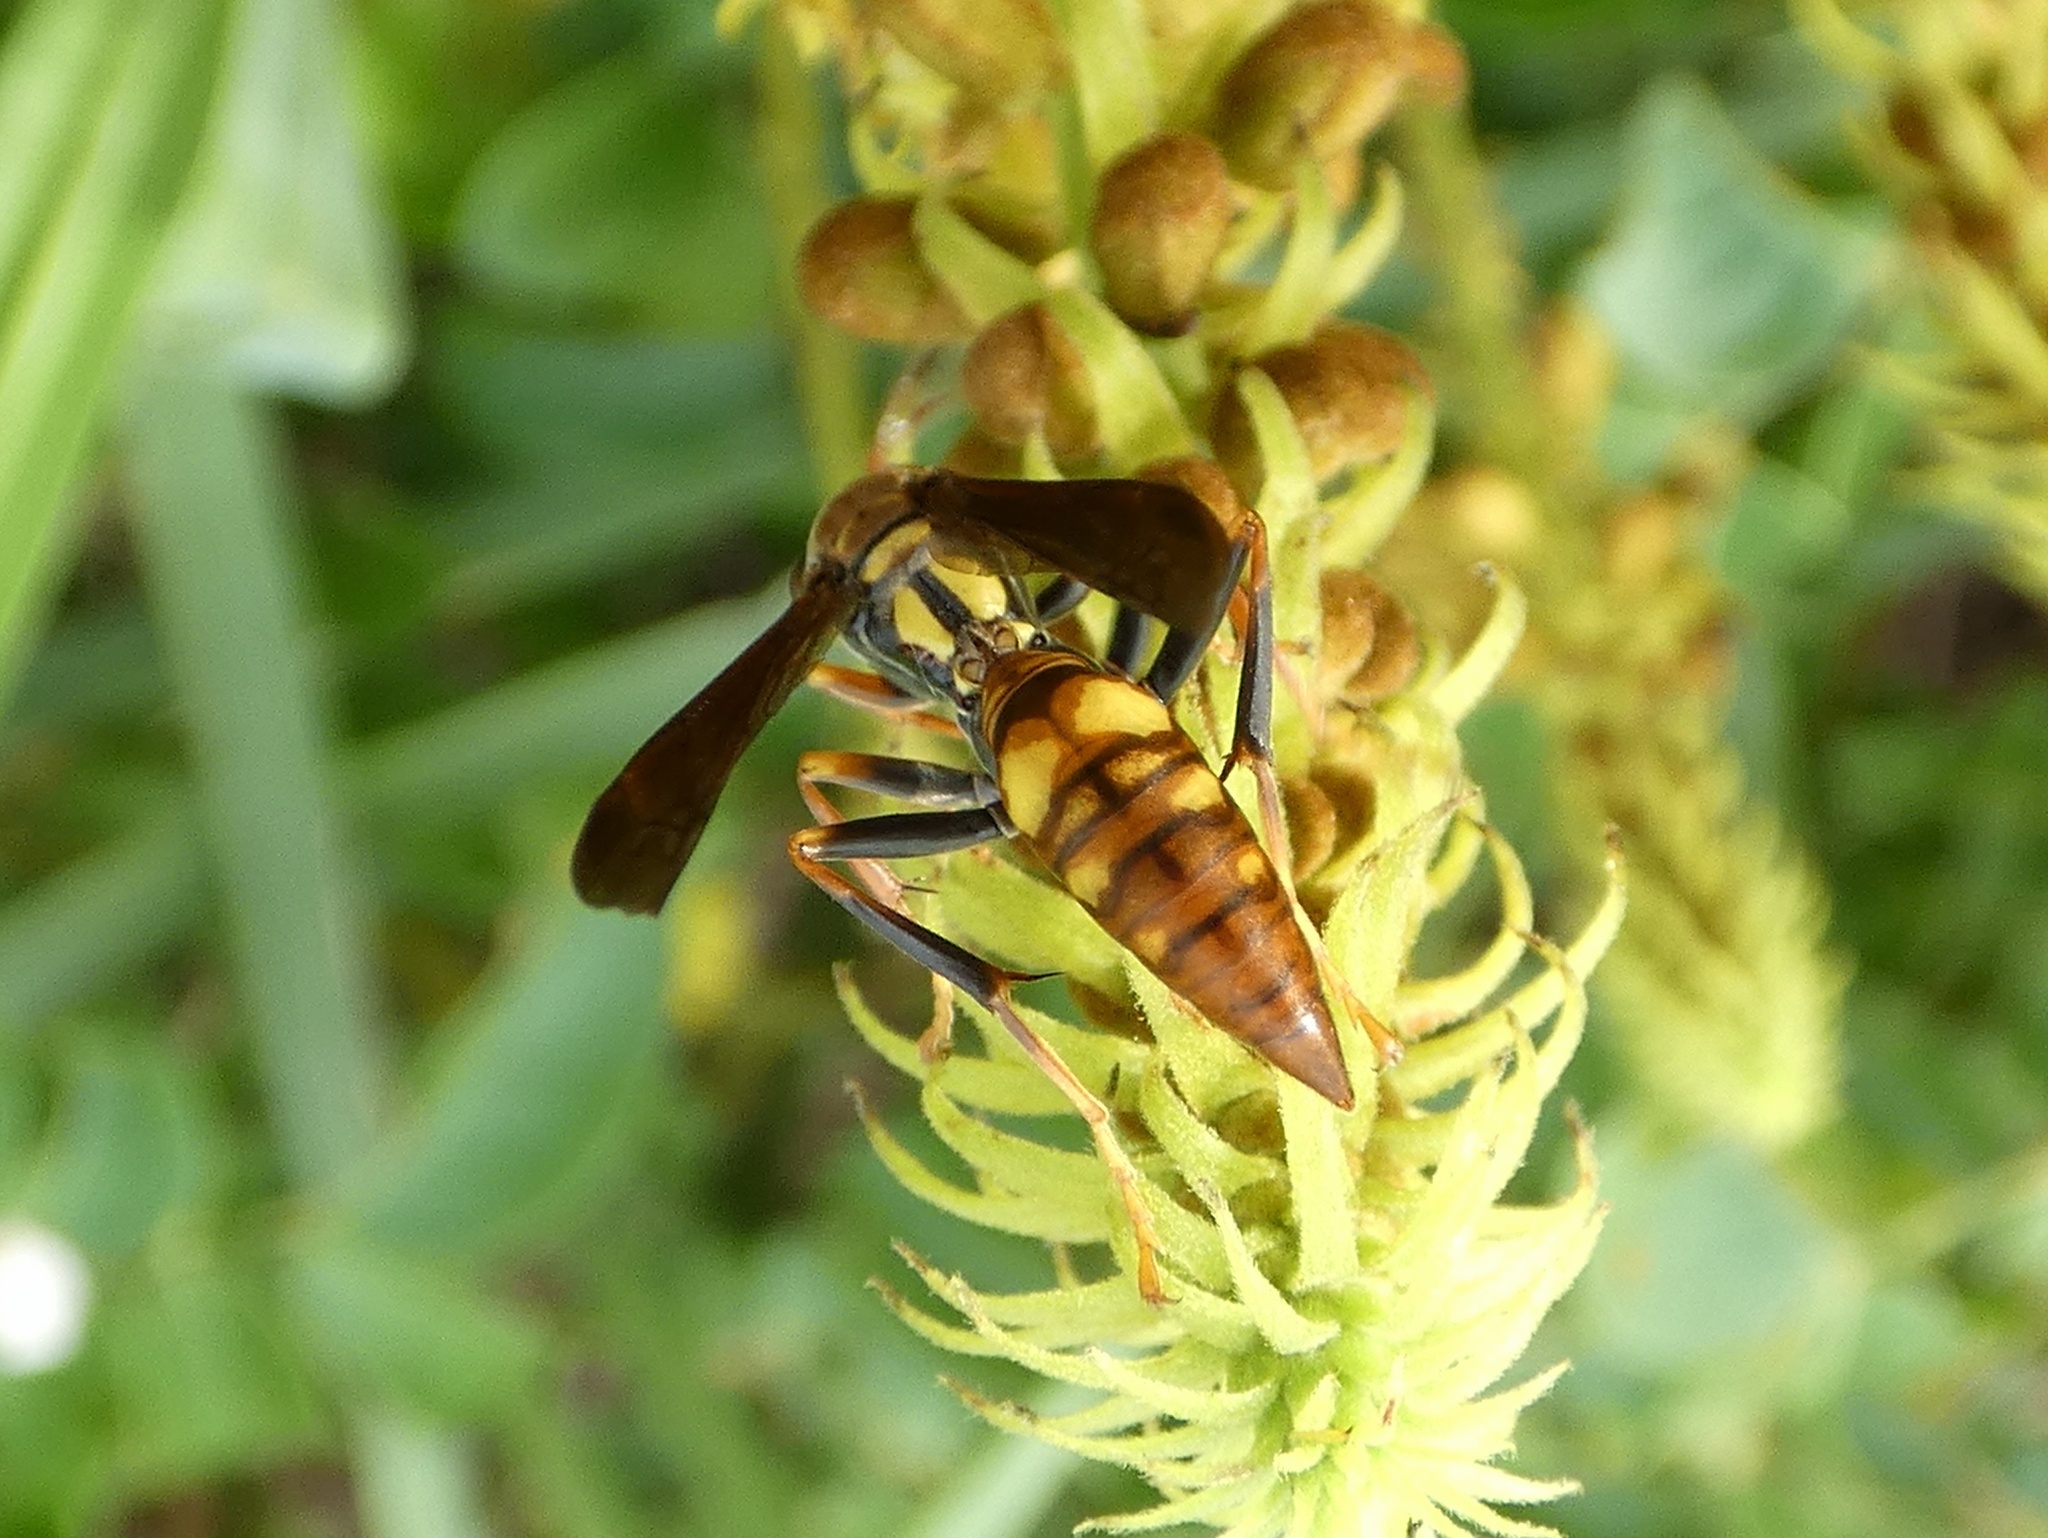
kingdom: Animalia
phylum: Arthropoda
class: Insecta
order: Hymenoptera
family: Eumenidae
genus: Polistes
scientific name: Polistes versicolor
